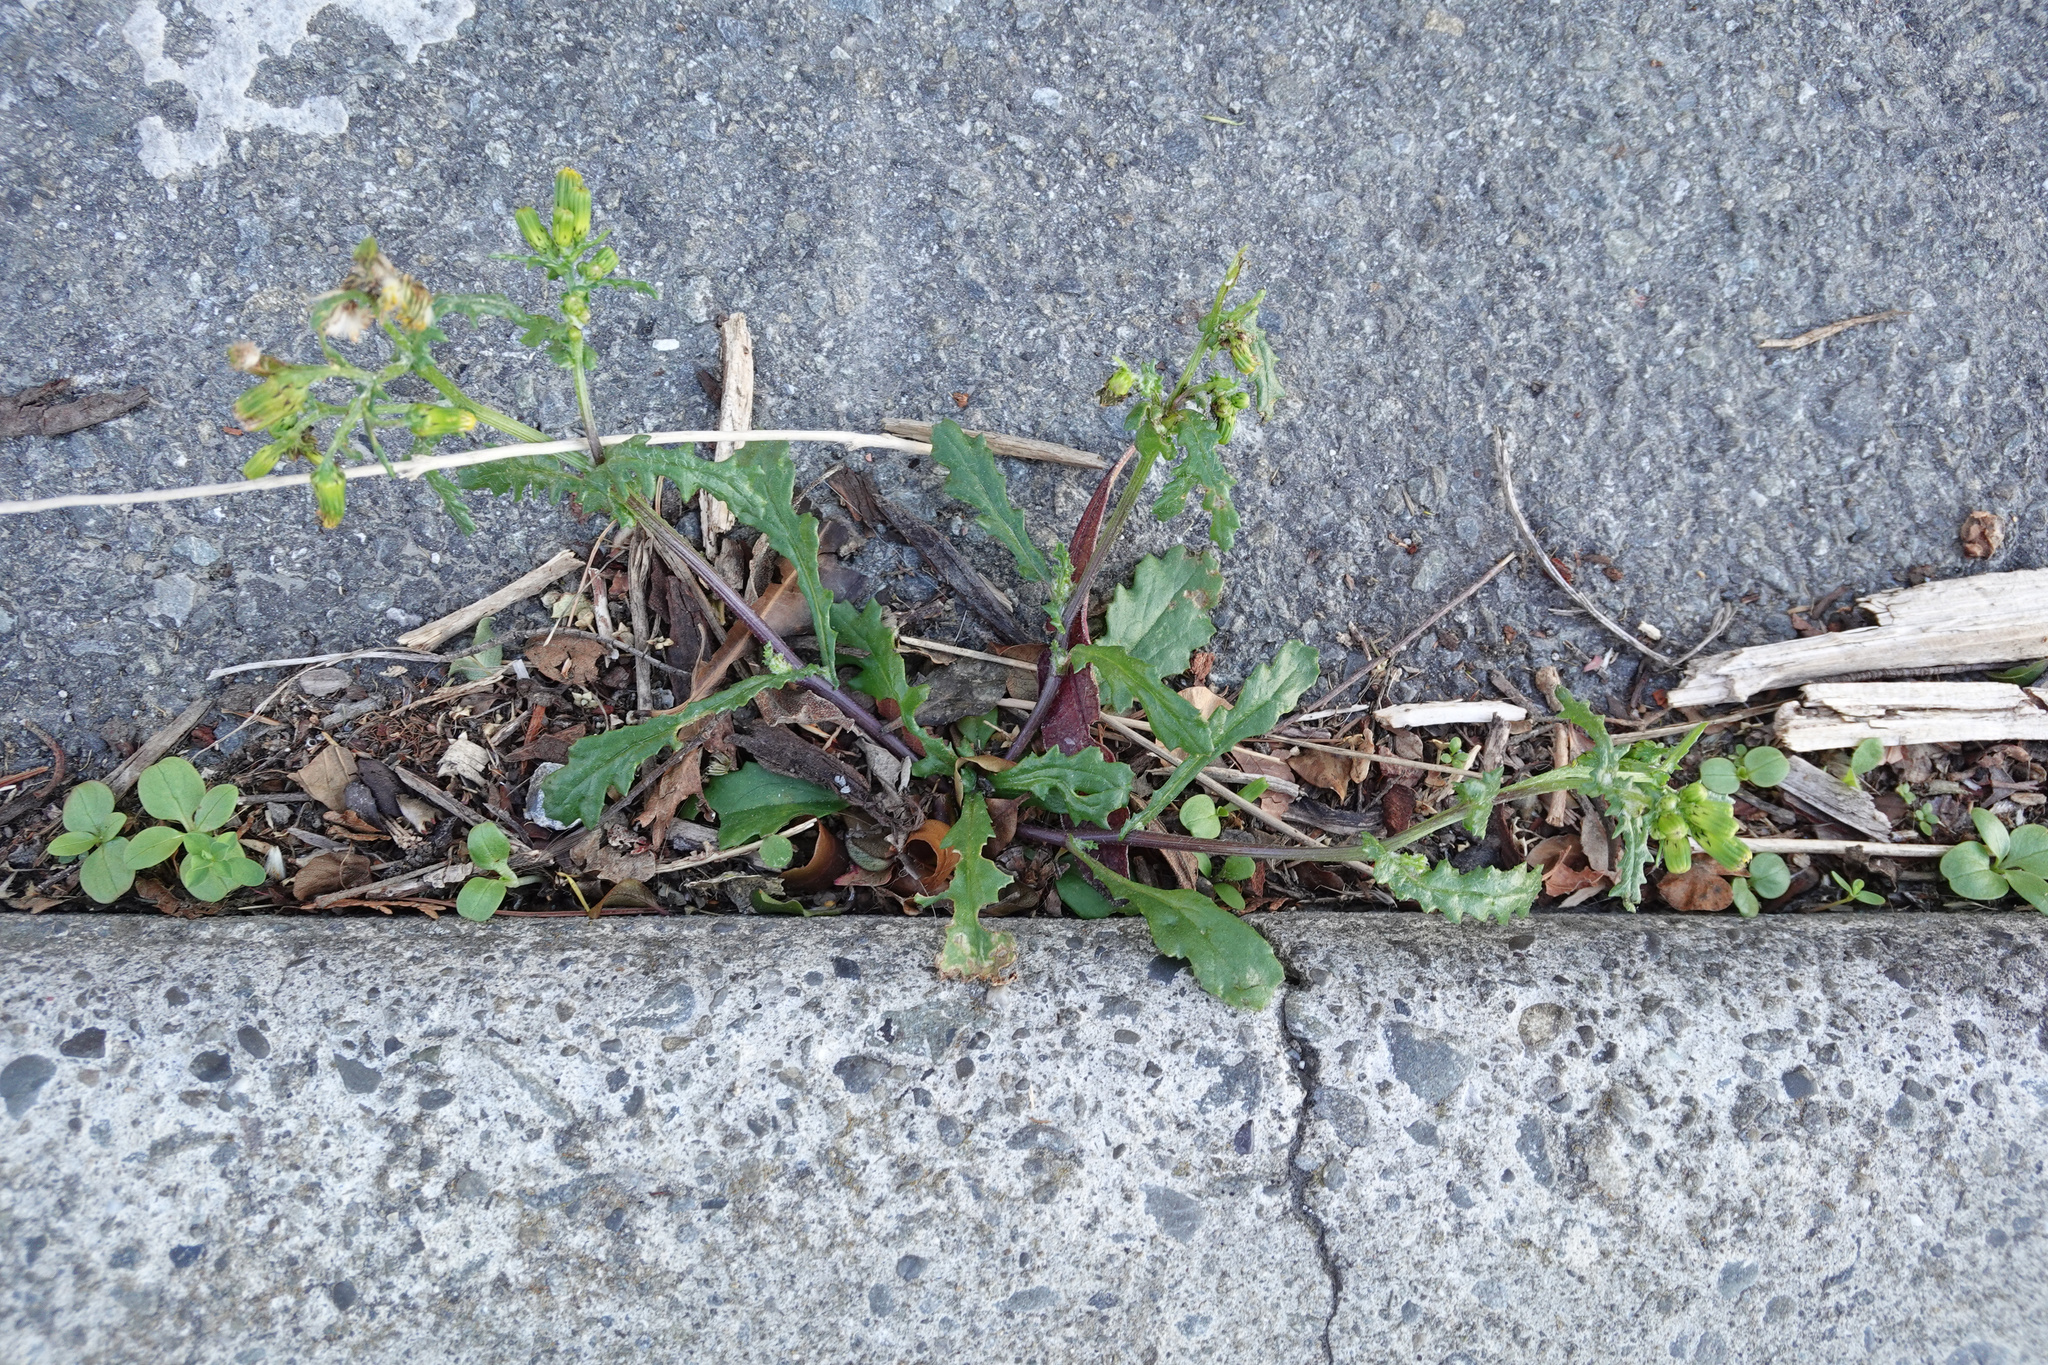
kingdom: Plantae
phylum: Tracheophyta
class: Magnoliopsida
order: Asterales
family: Asteraceae
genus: Senecio
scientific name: Senecio vulgaris
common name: Old-man-in-the-spring
